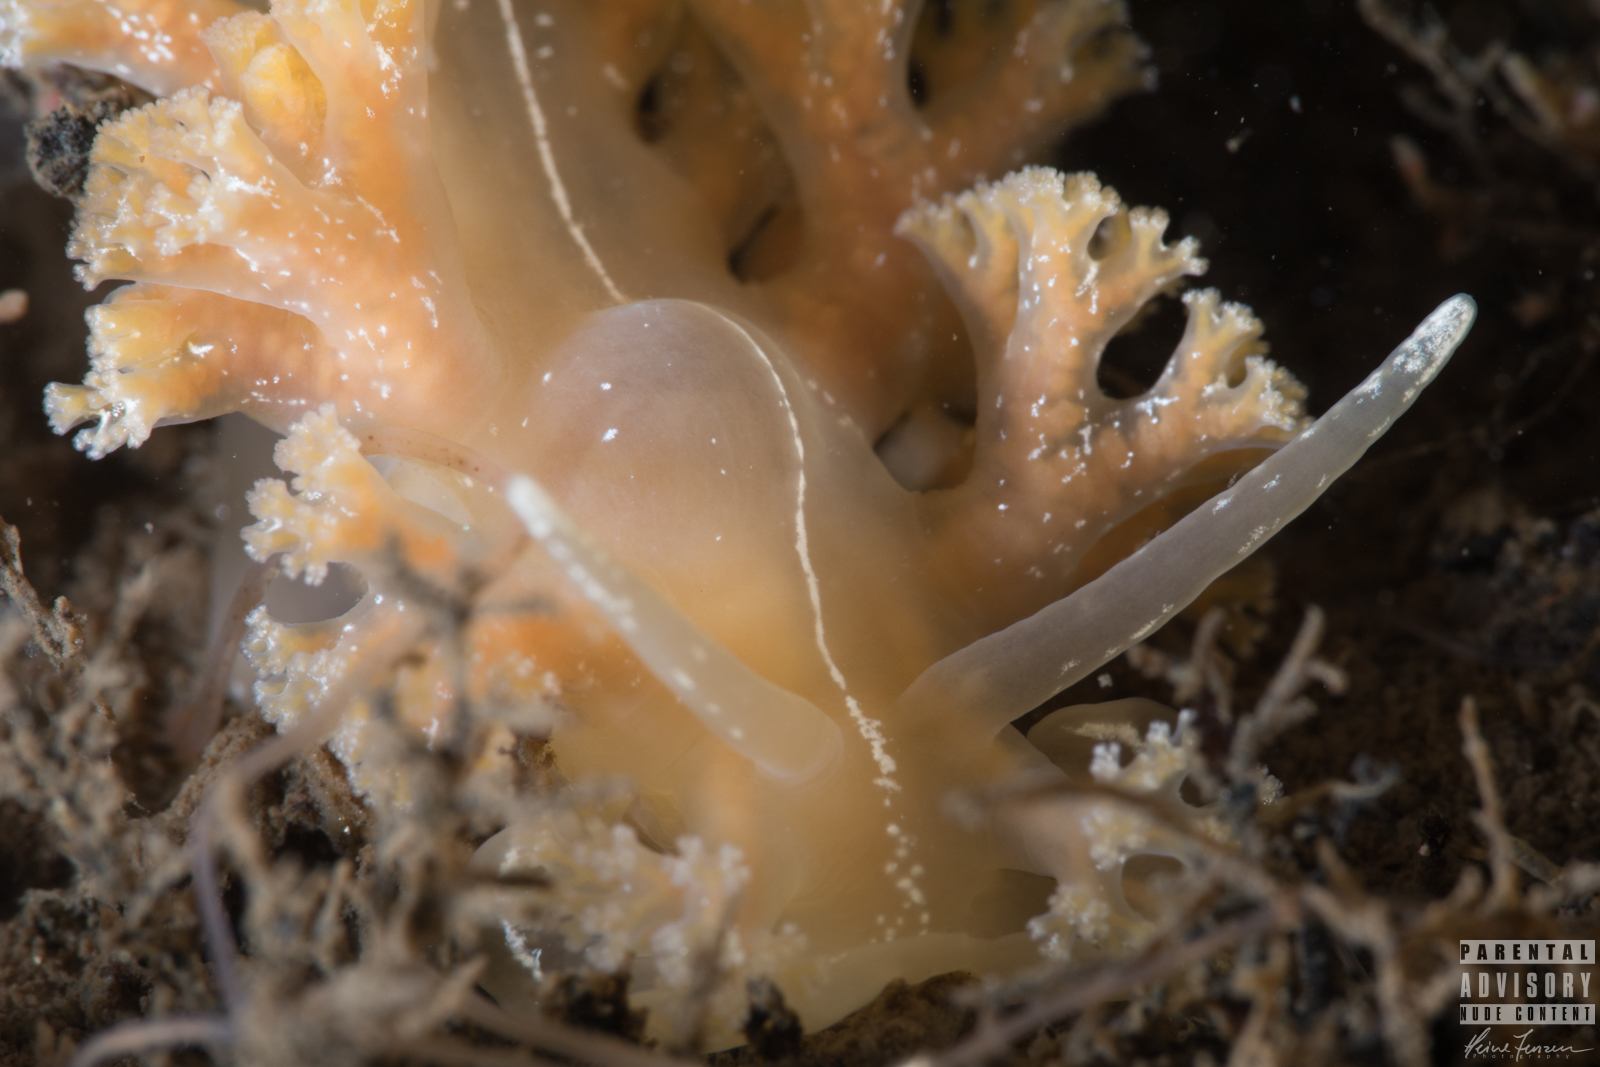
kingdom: Animalia
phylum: Mollusca
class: Gastropoda
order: Nudibranchia
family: Heroidae
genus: Hero
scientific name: Hero formosa
